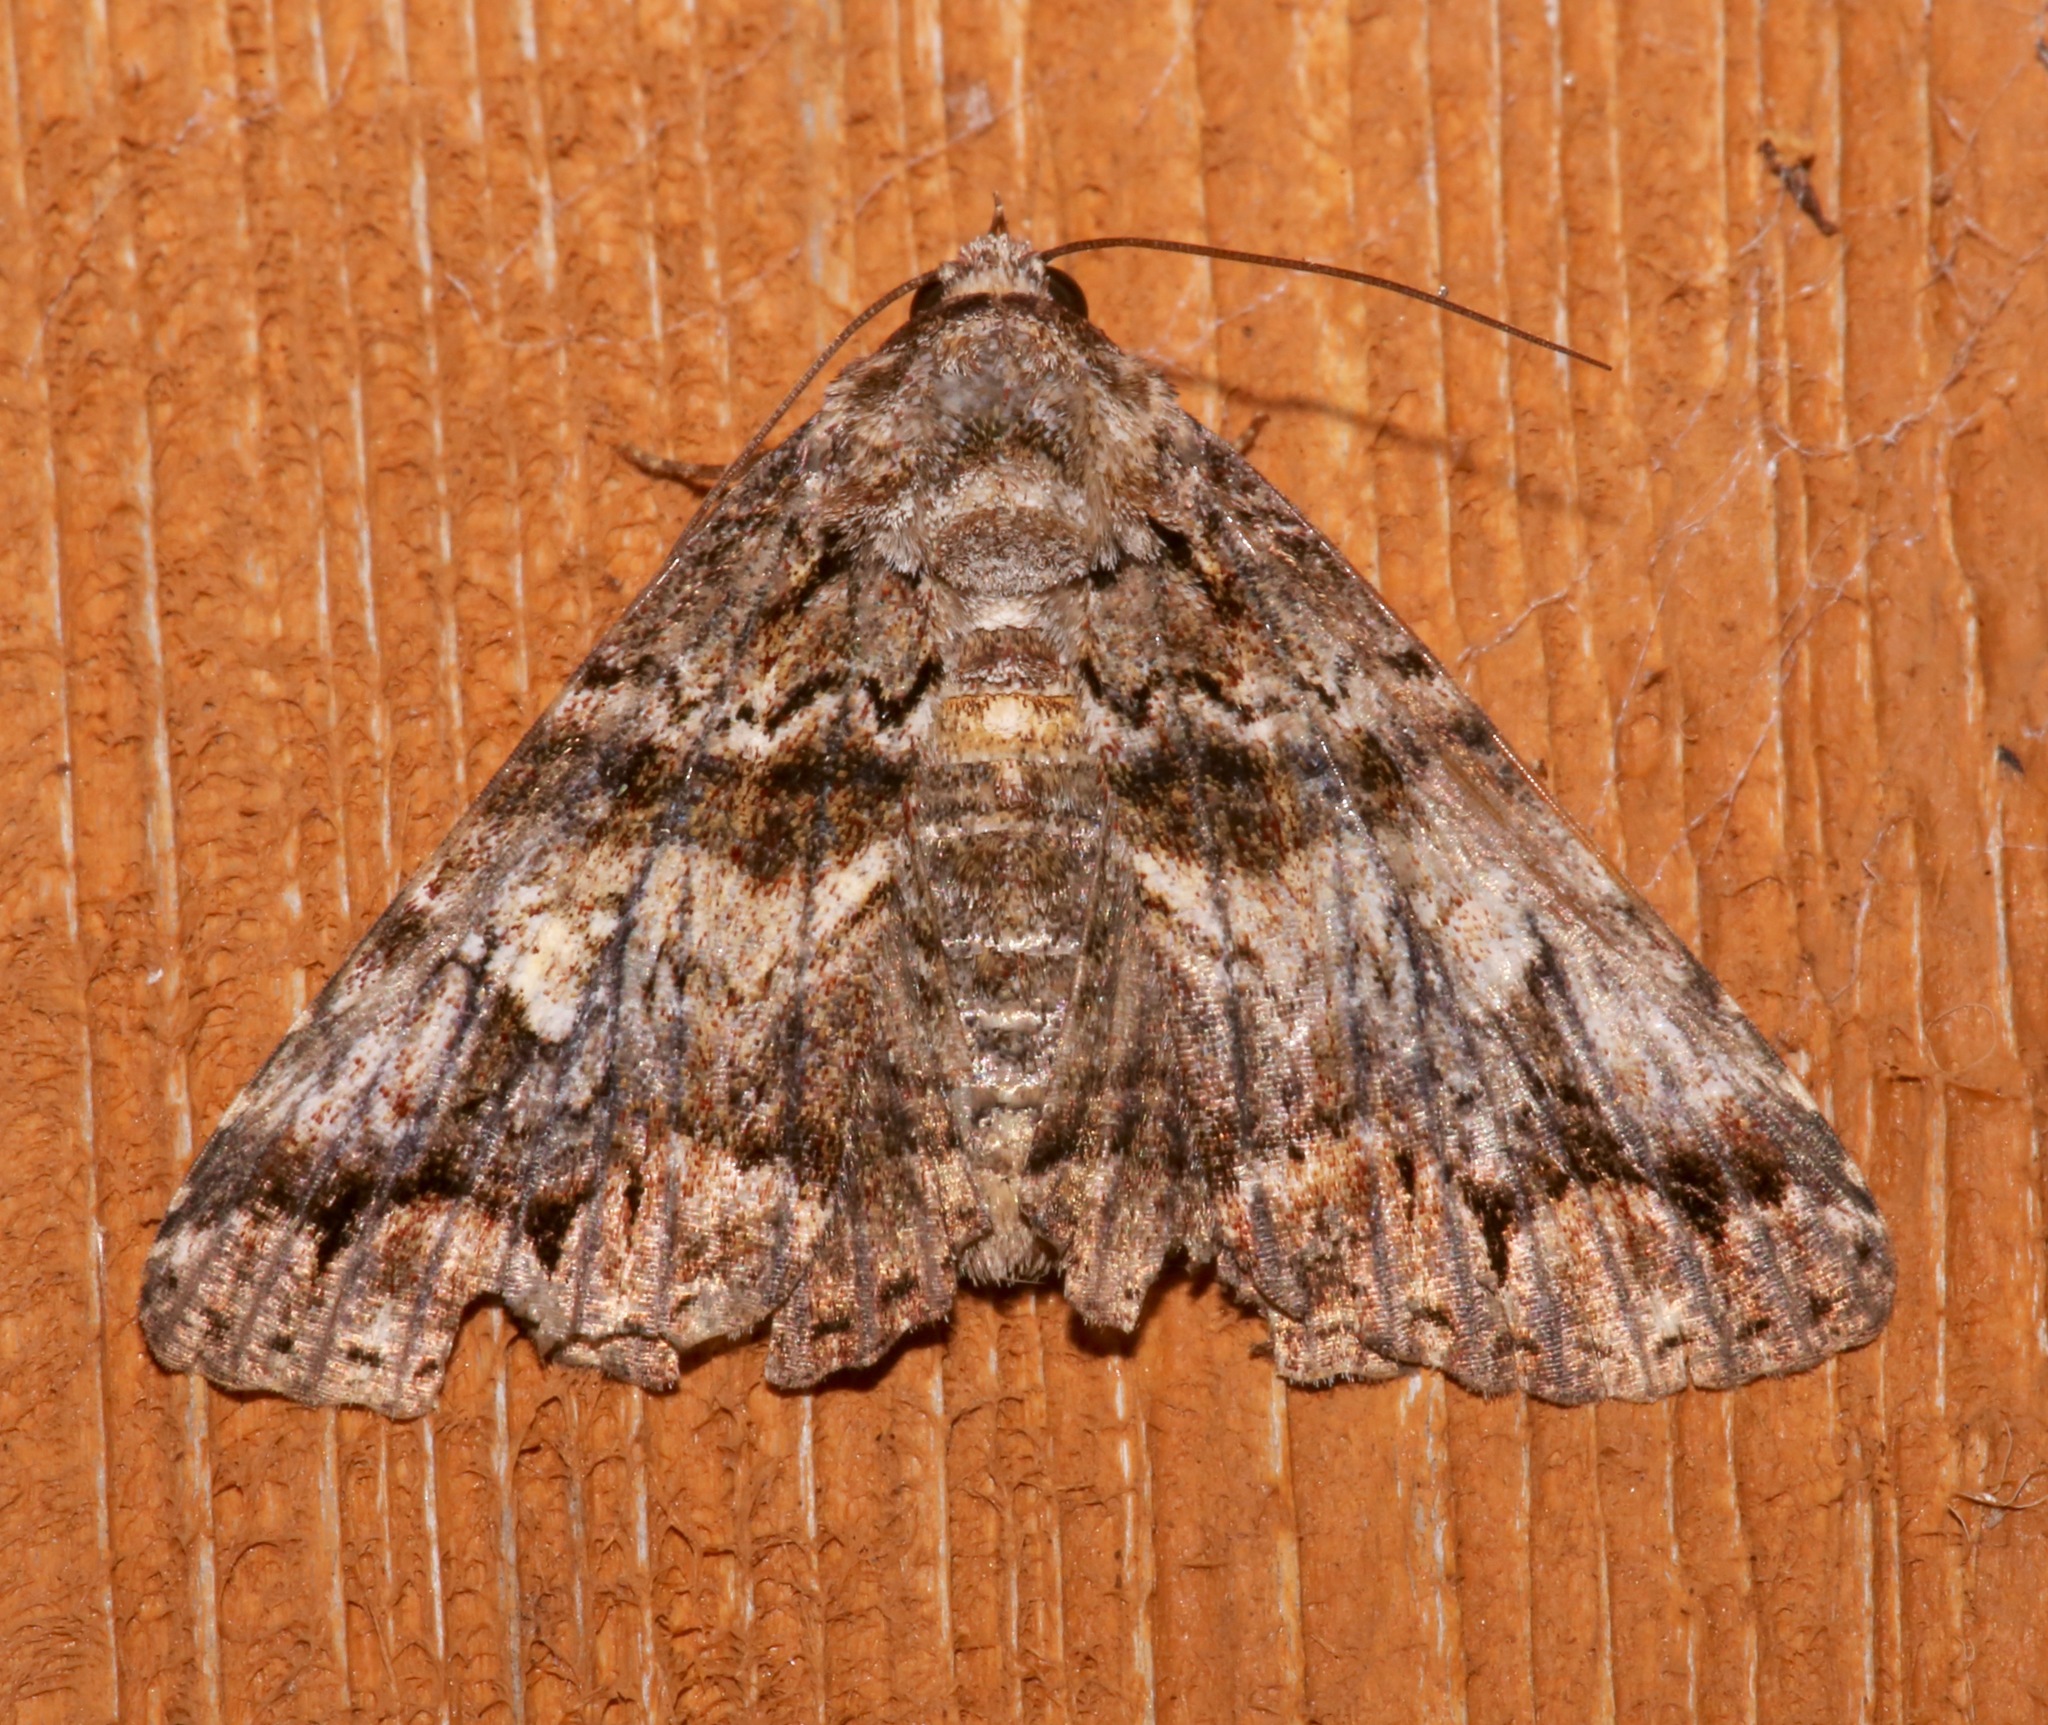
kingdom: Animalia
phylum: Arthropoda
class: Insecta
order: Lepidoptera
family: Erebidae
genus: Metria
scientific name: Metria amella
